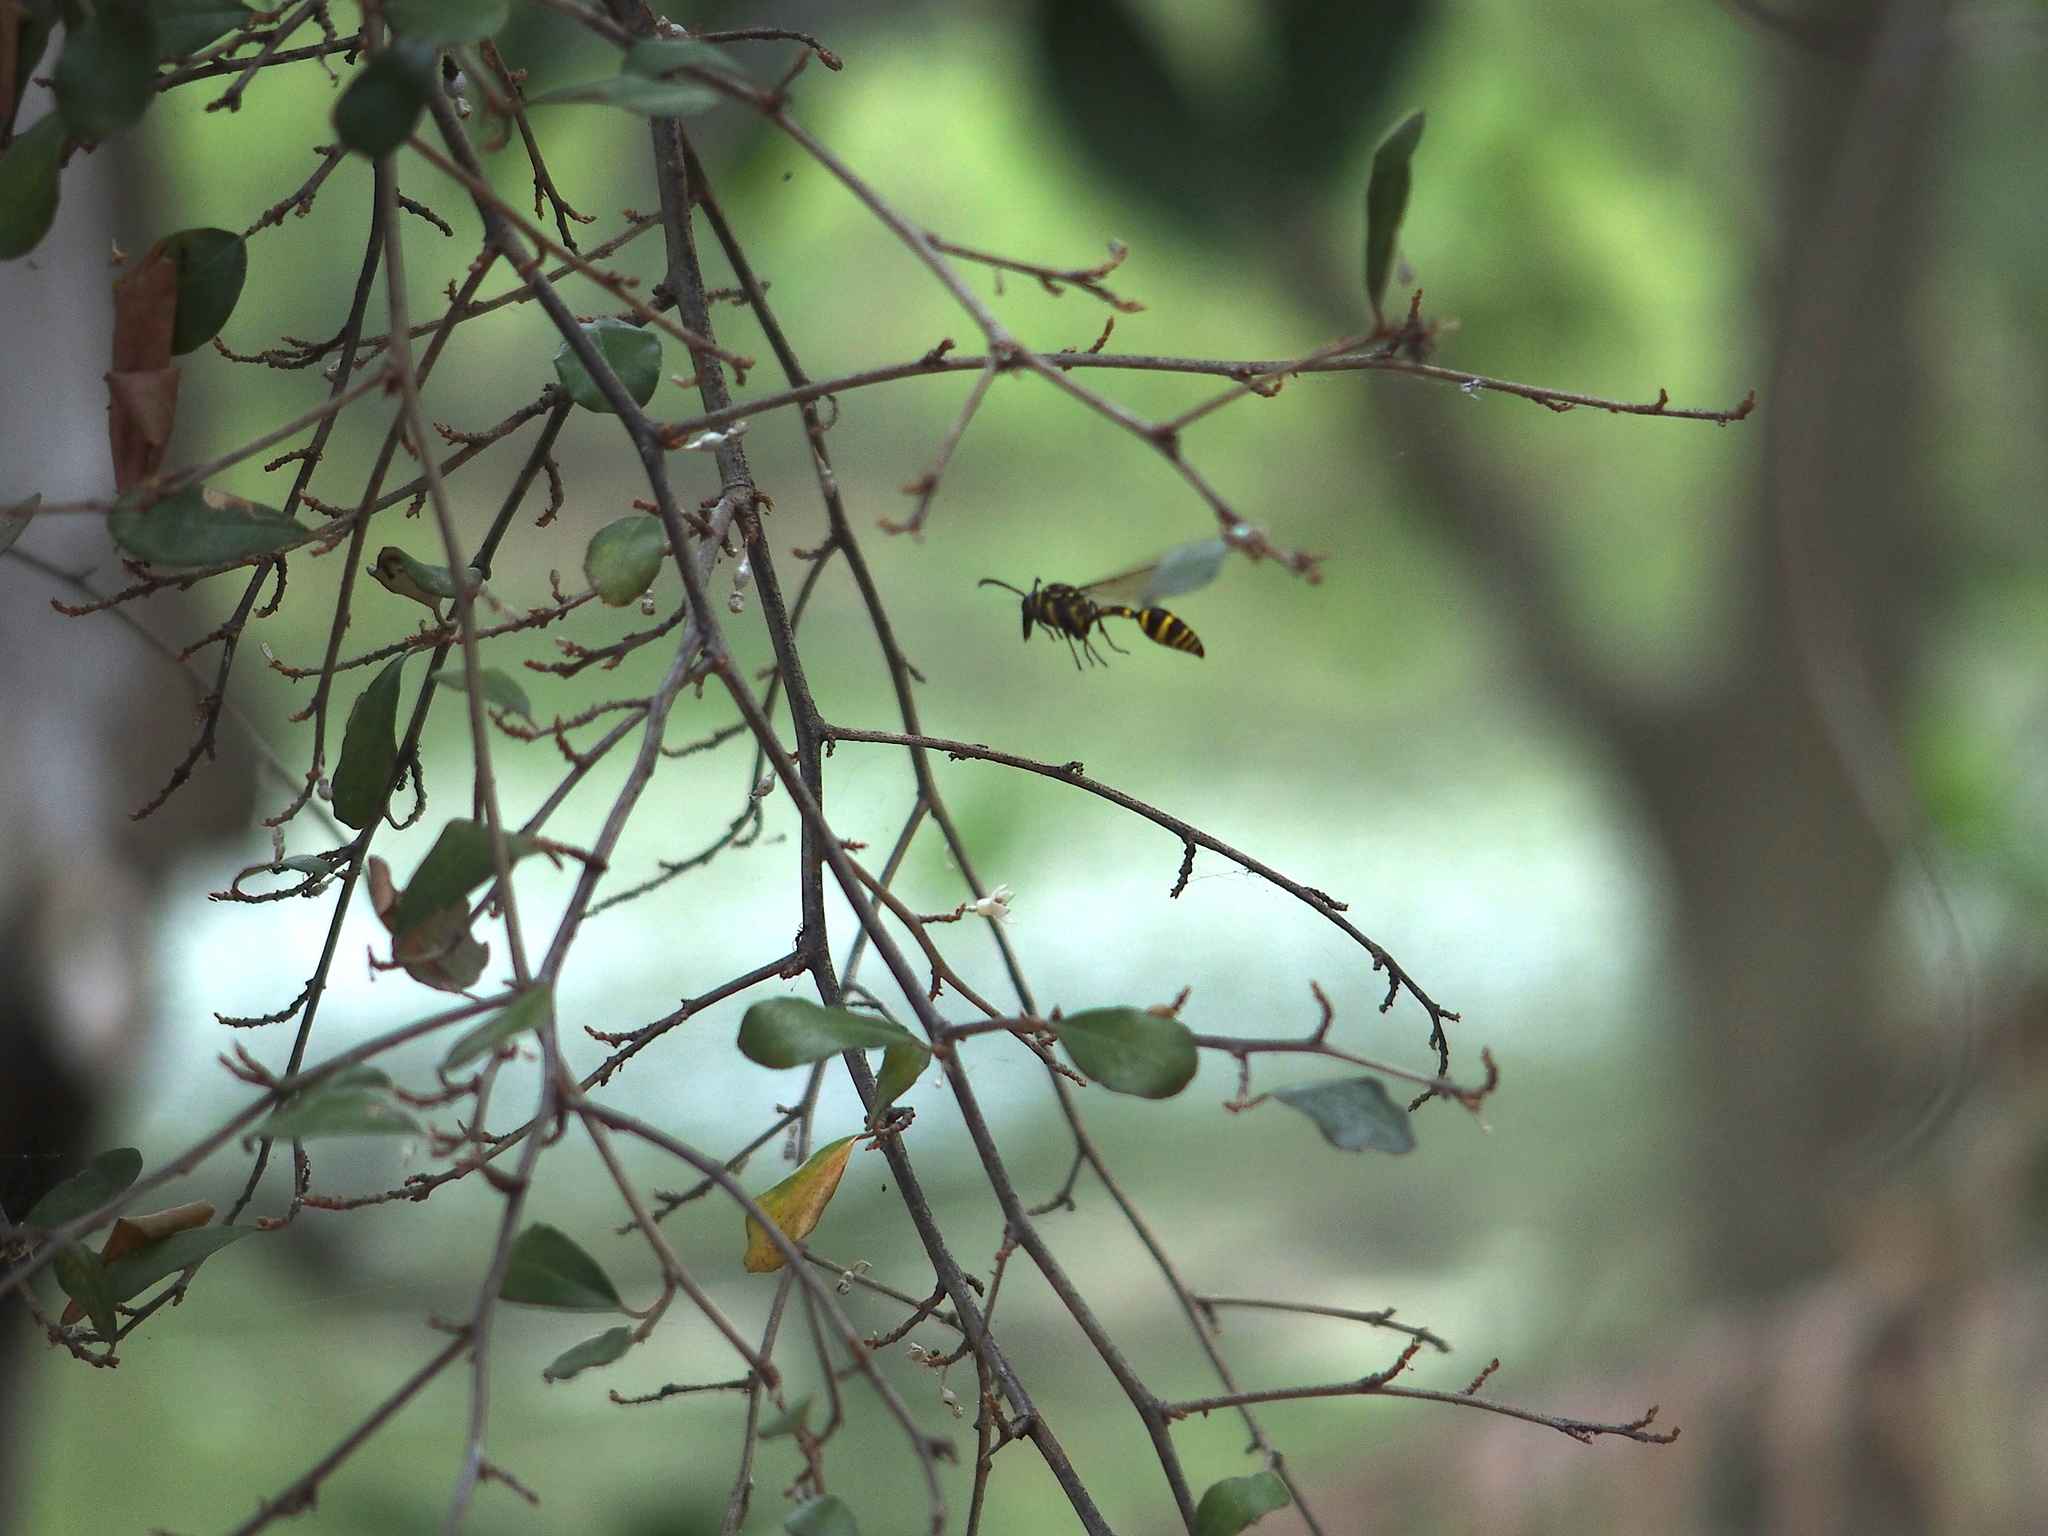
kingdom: Animalia
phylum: Arthropoda
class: Insecta
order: Hymenoptera
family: Eumenidae
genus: Phimenes
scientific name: Phimenes flavopictus
